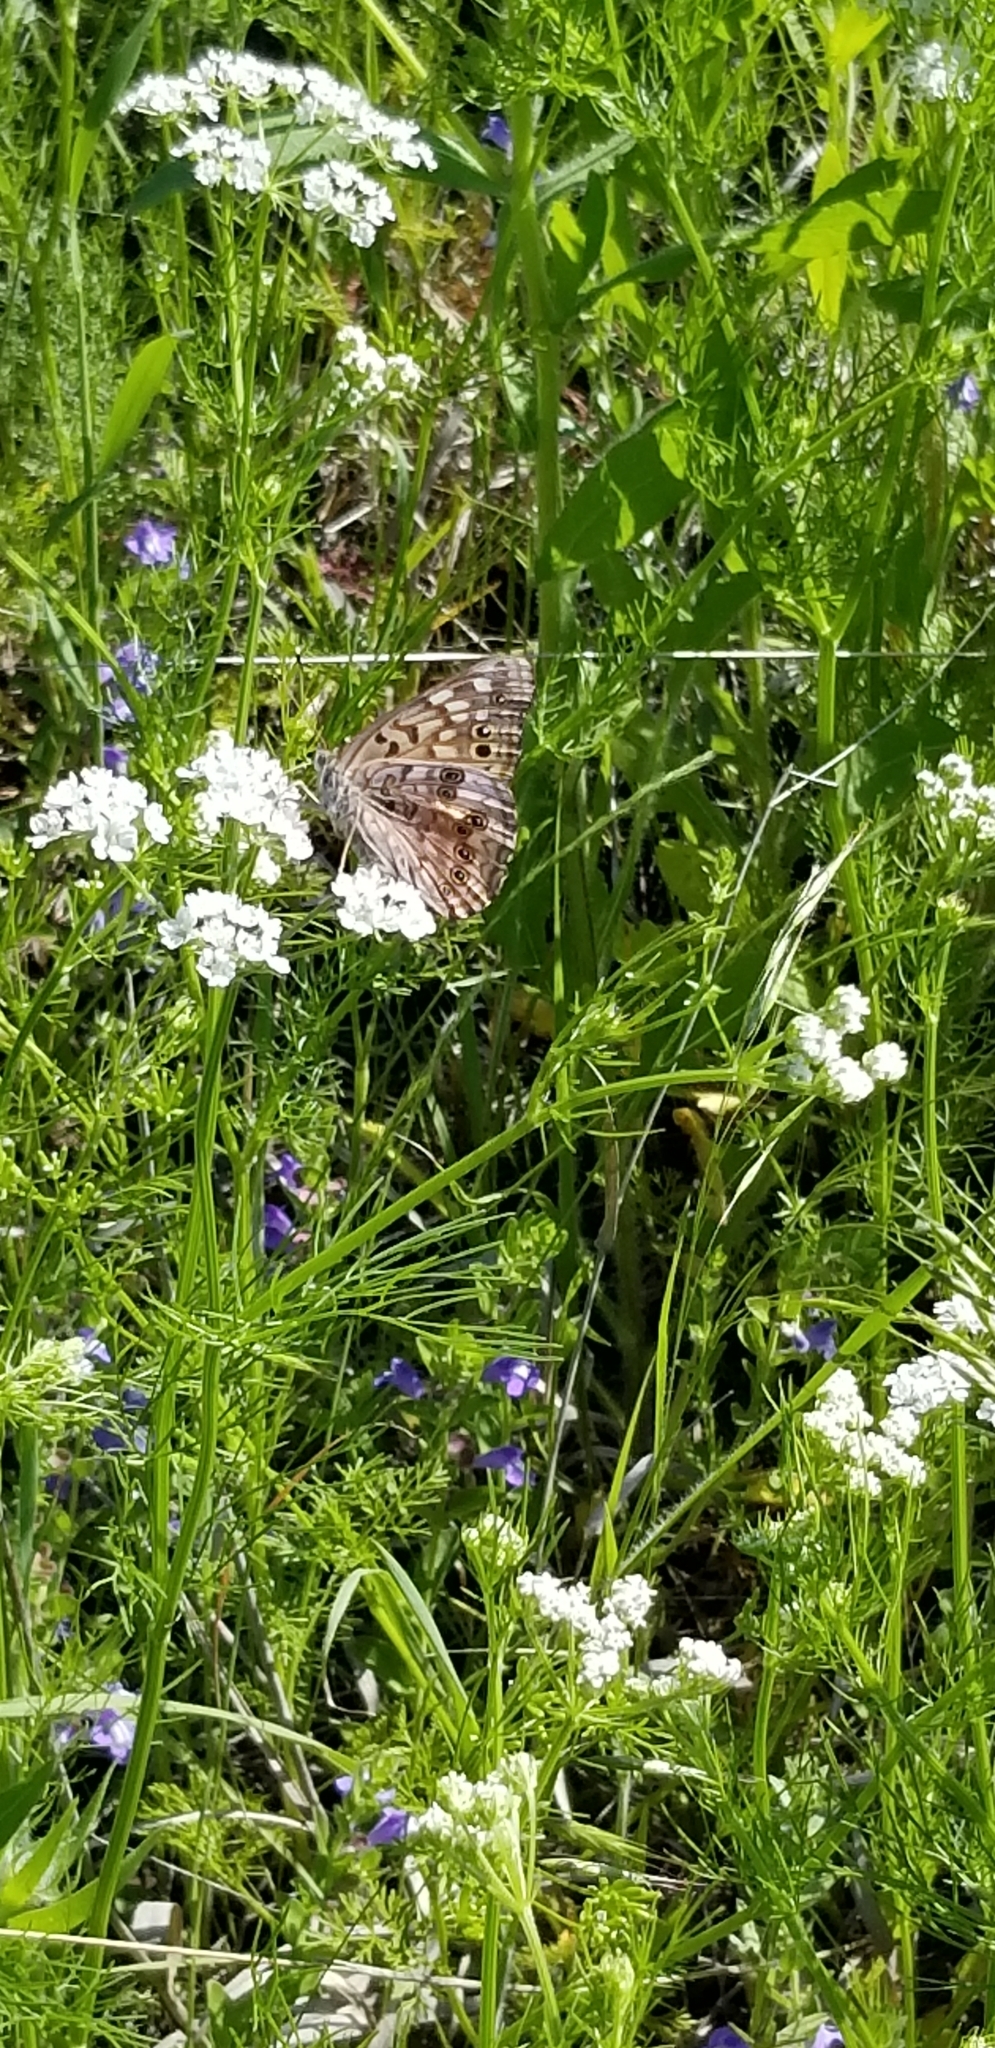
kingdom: Animalia
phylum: Arthropoda
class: Insecta
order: Lepidoptera
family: Nymphalidae
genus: Asterocampa
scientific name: Asterocampa celtis
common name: Hackberry emperor
